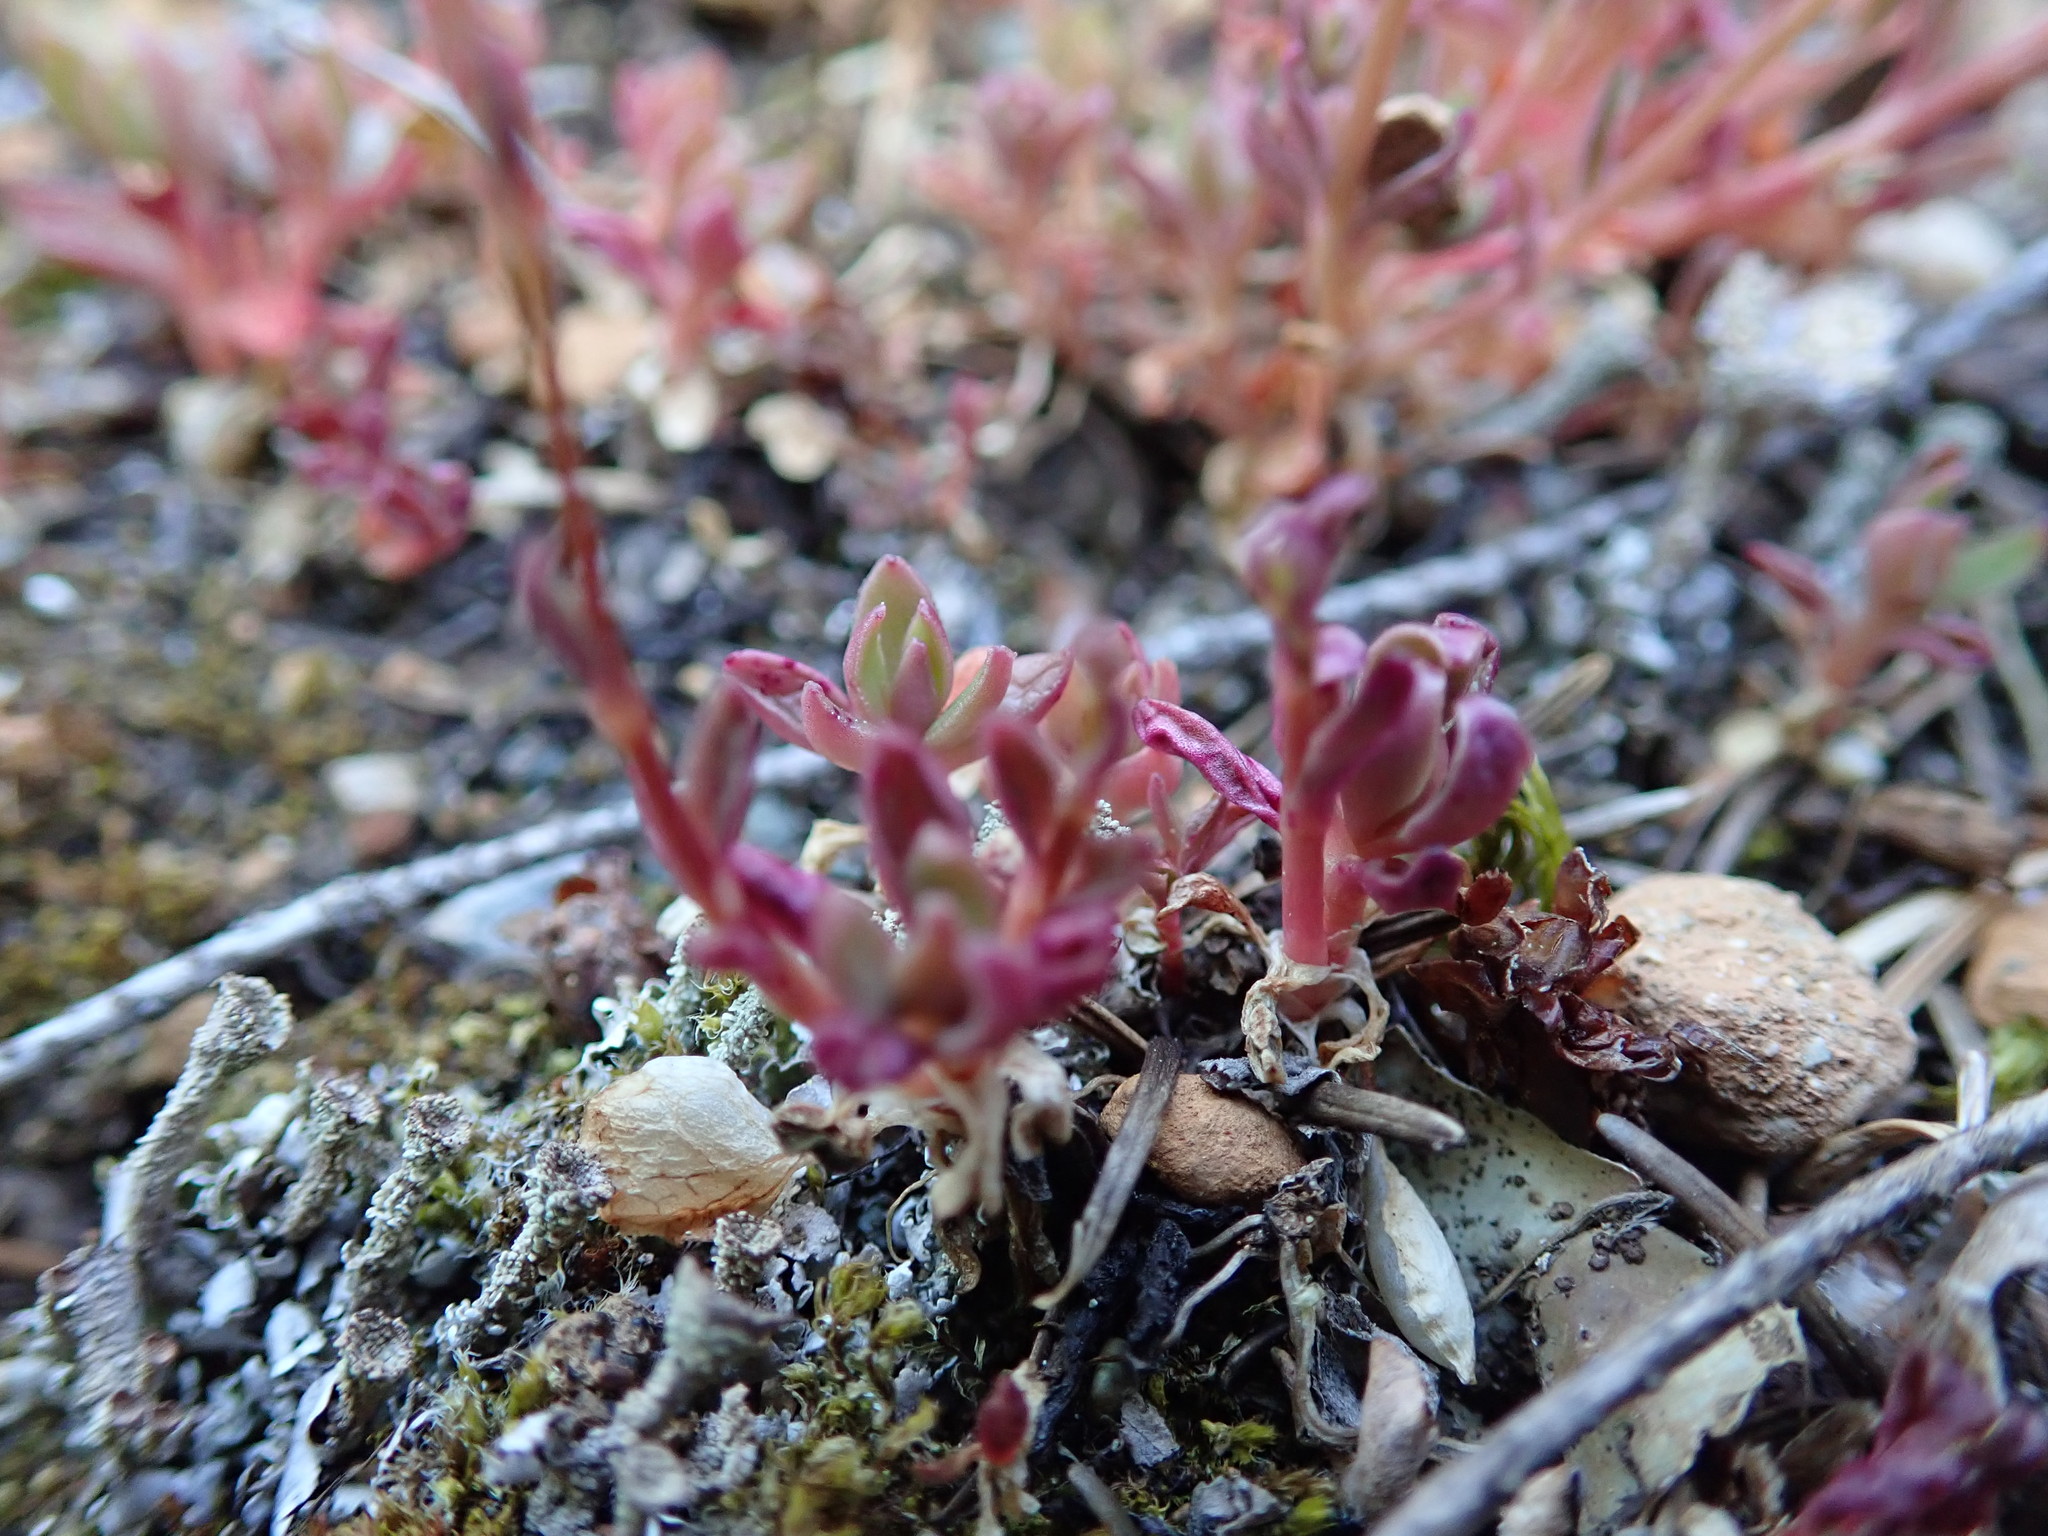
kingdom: Plantae
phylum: Tracheophyta
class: Magnoliopsida
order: Caryophyllales
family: Montiaceae
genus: Montia
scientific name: Montia parvifolia
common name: Small-leaved blinks
